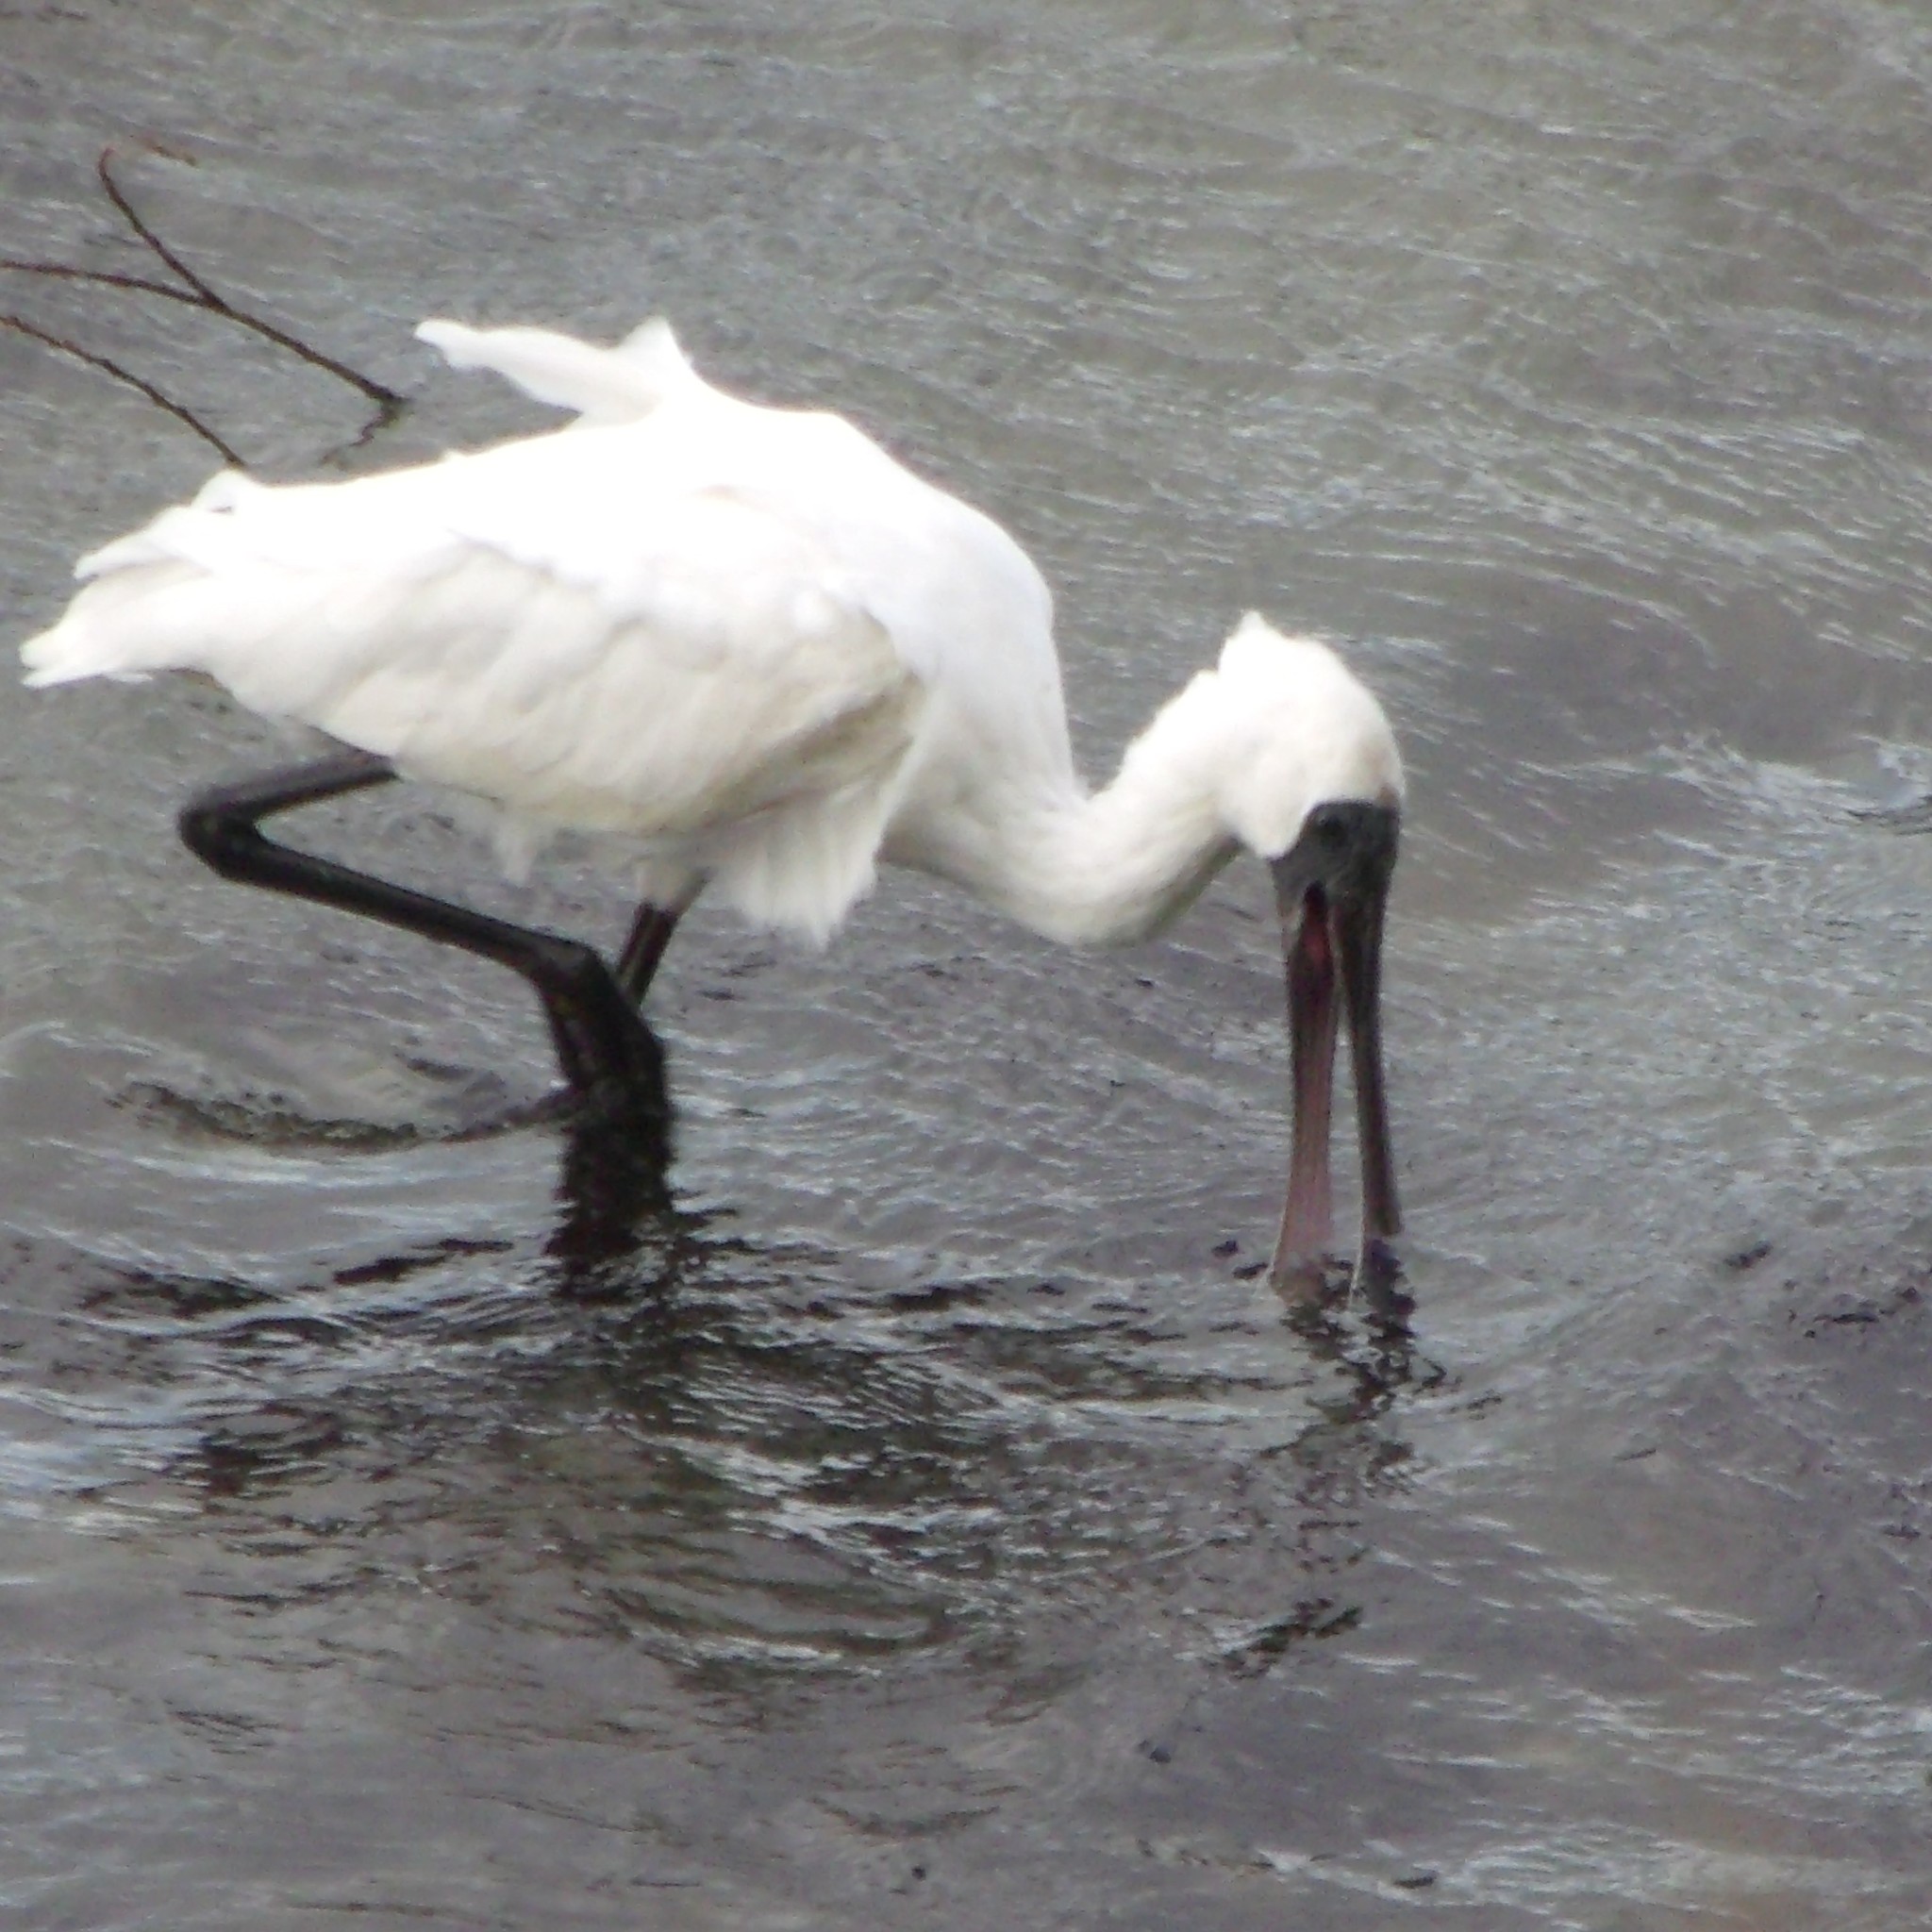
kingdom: Animalia
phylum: Chordata
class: Aves
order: Pelecaniformes
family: Threskiornithidae
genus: Platalea
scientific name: Platalea regia
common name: Royal spoonbill
